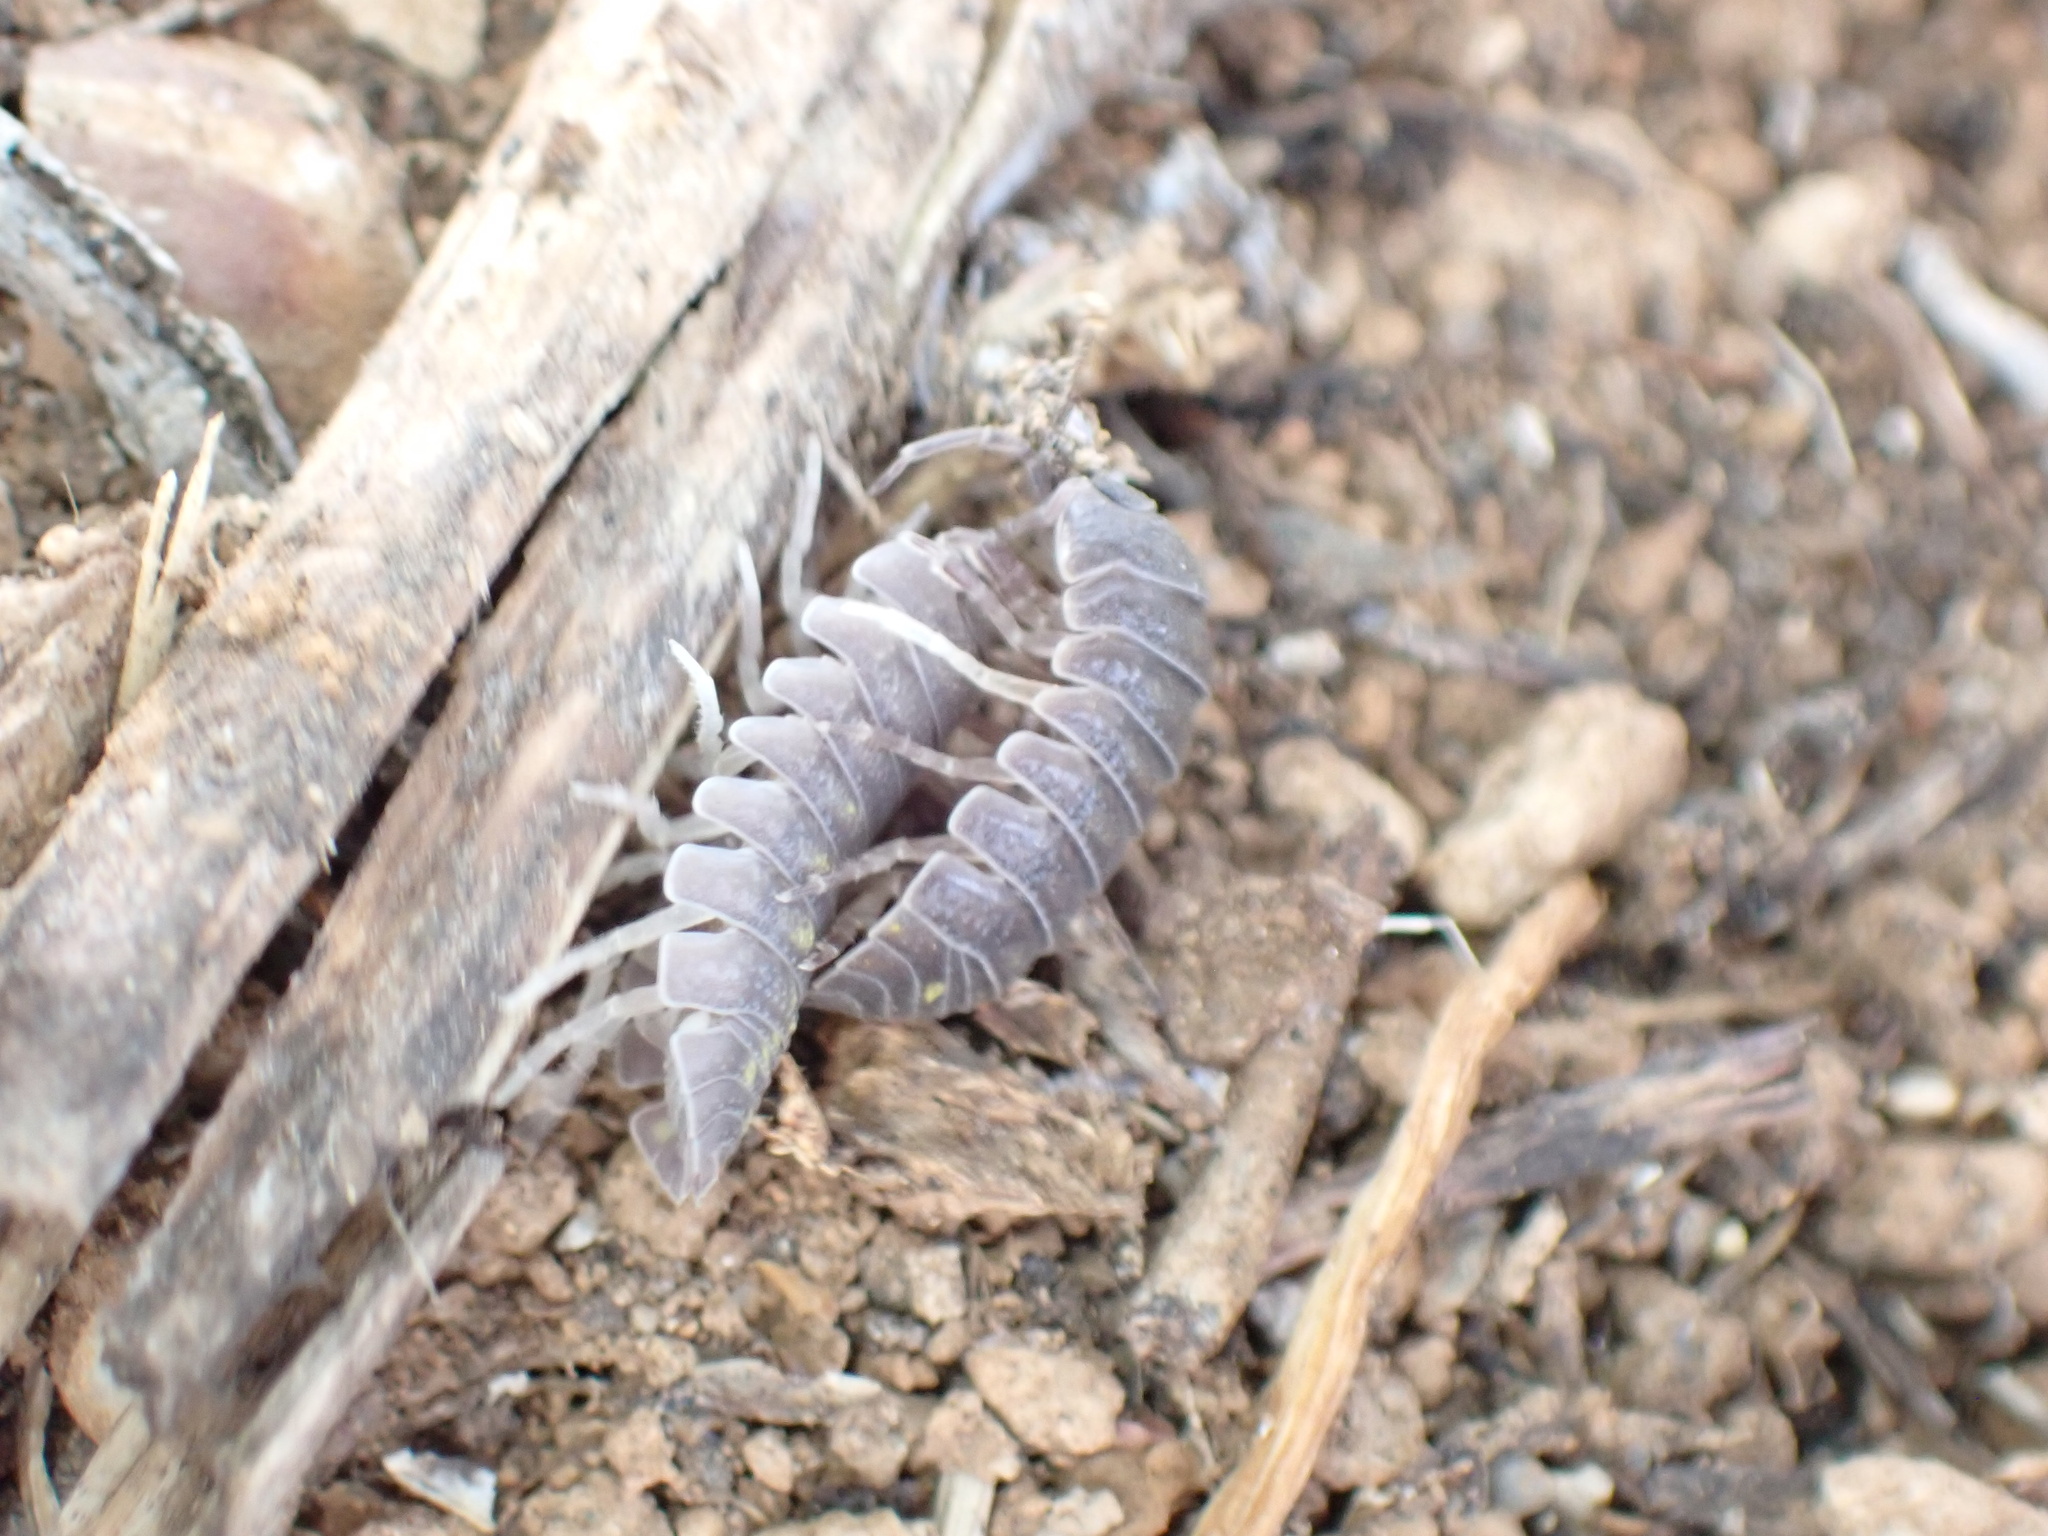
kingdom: Animalia
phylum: Arthropoda
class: Malacostraca
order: Isopoda
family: Armadillidiidae
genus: Armadillidium
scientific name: Armadillidium granulatum
